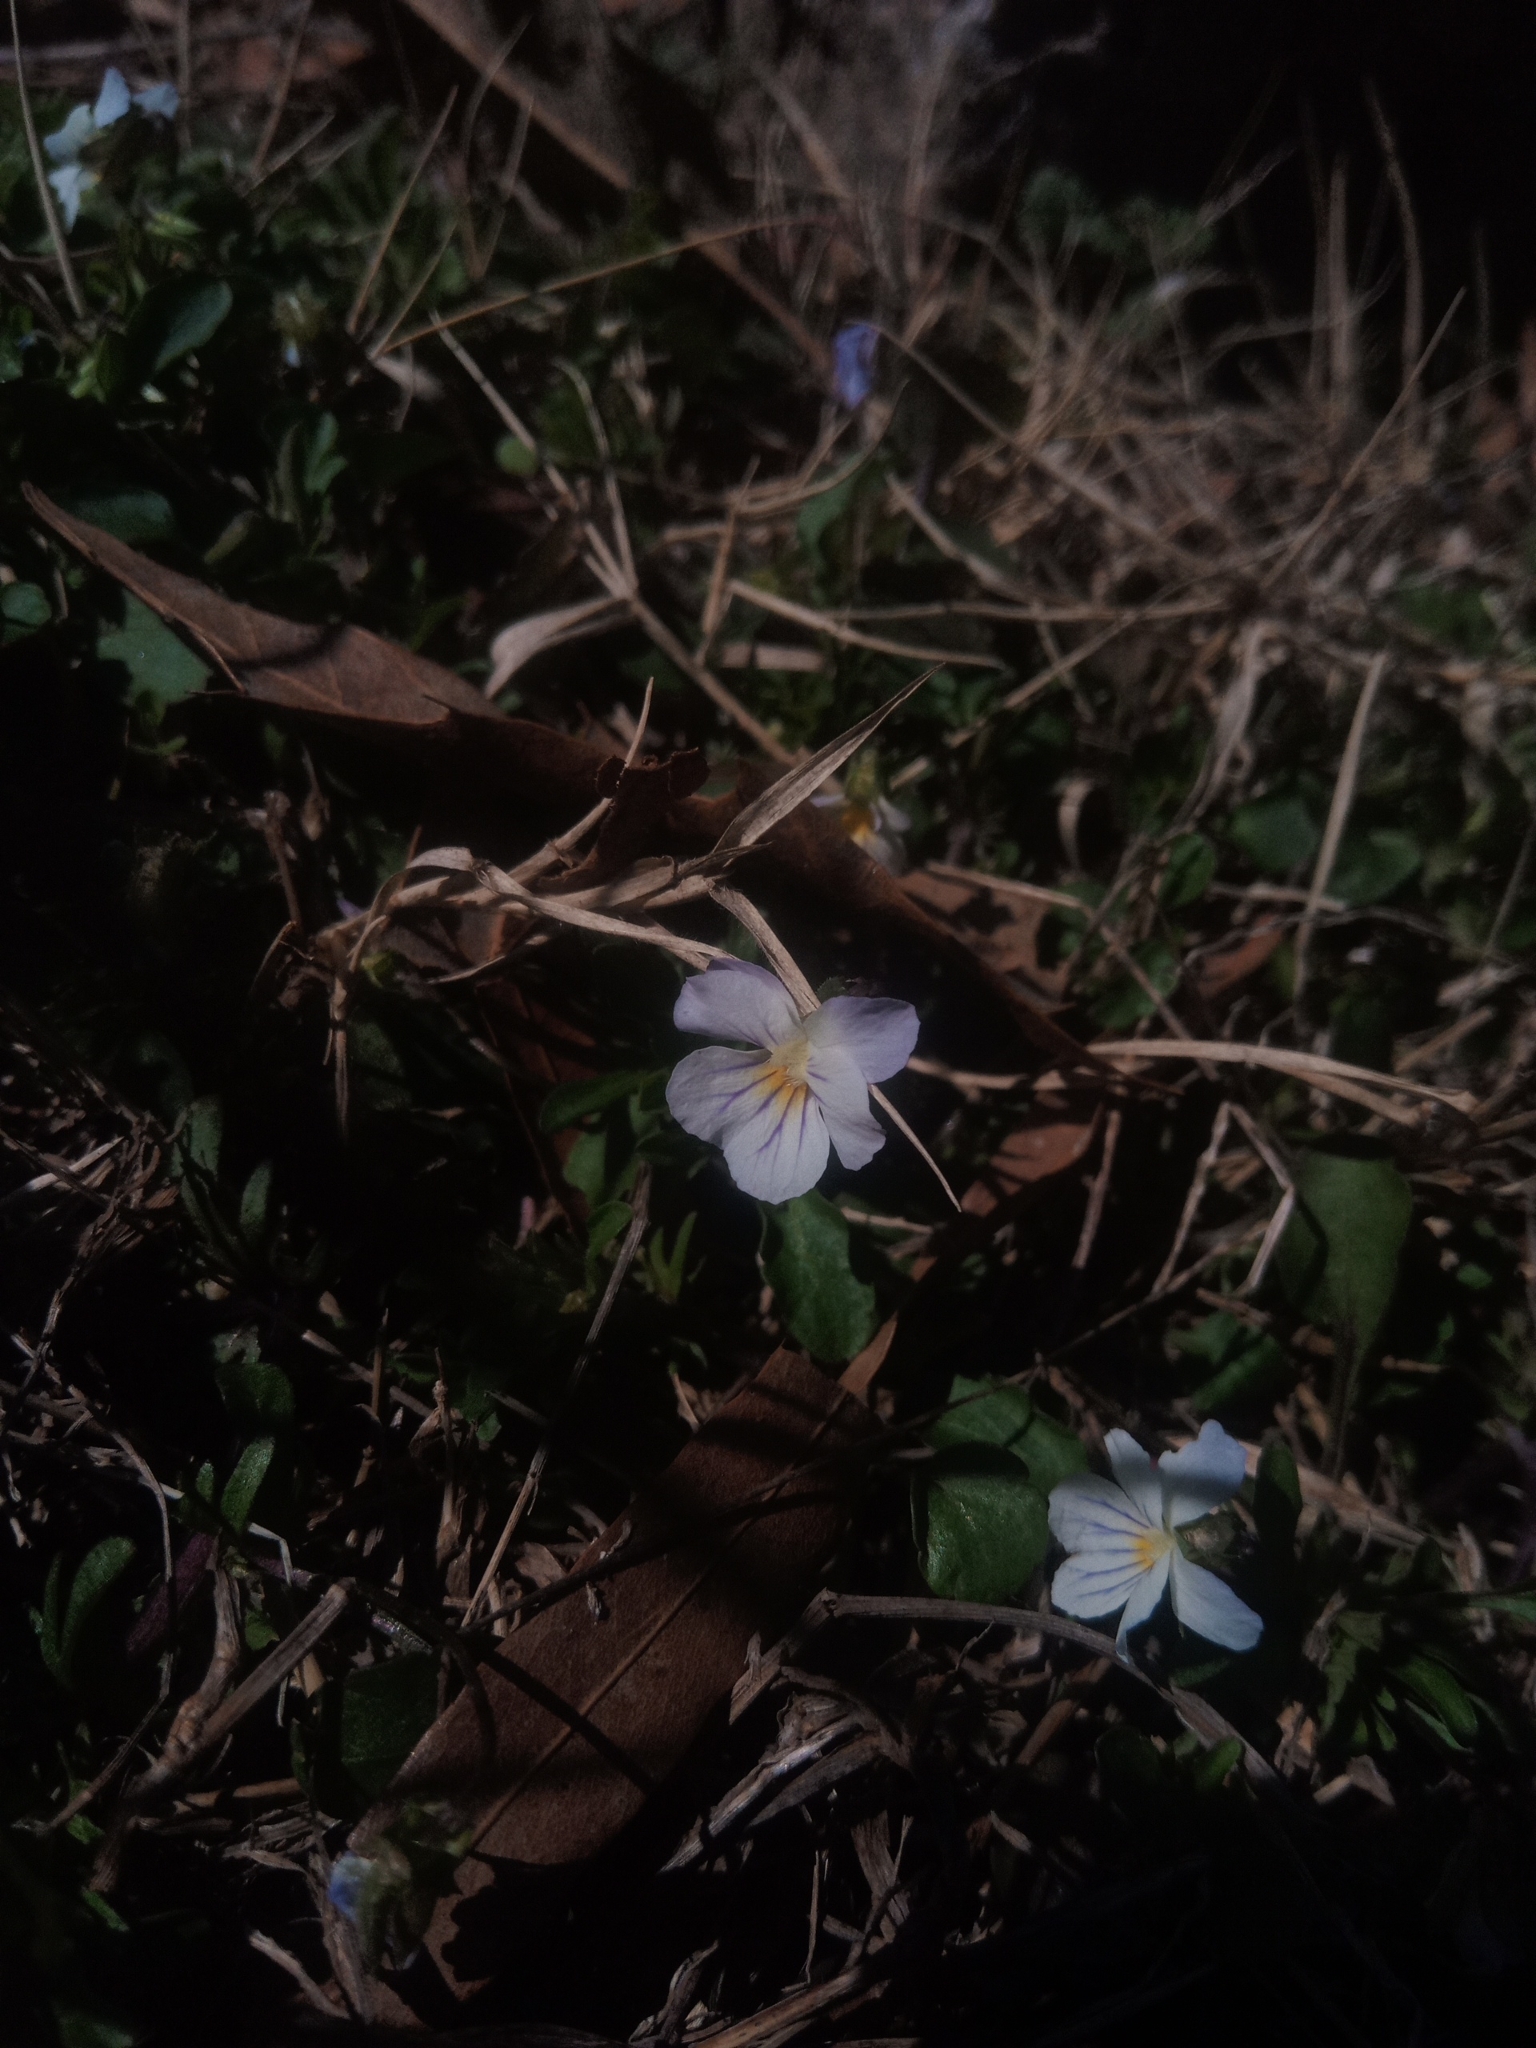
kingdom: Plantae
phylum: Tracheophyta
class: Magnoliopsida
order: Malpighiales
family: Violaceae
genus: Viola
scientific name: Viola rafinesquei
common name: American field pansy
